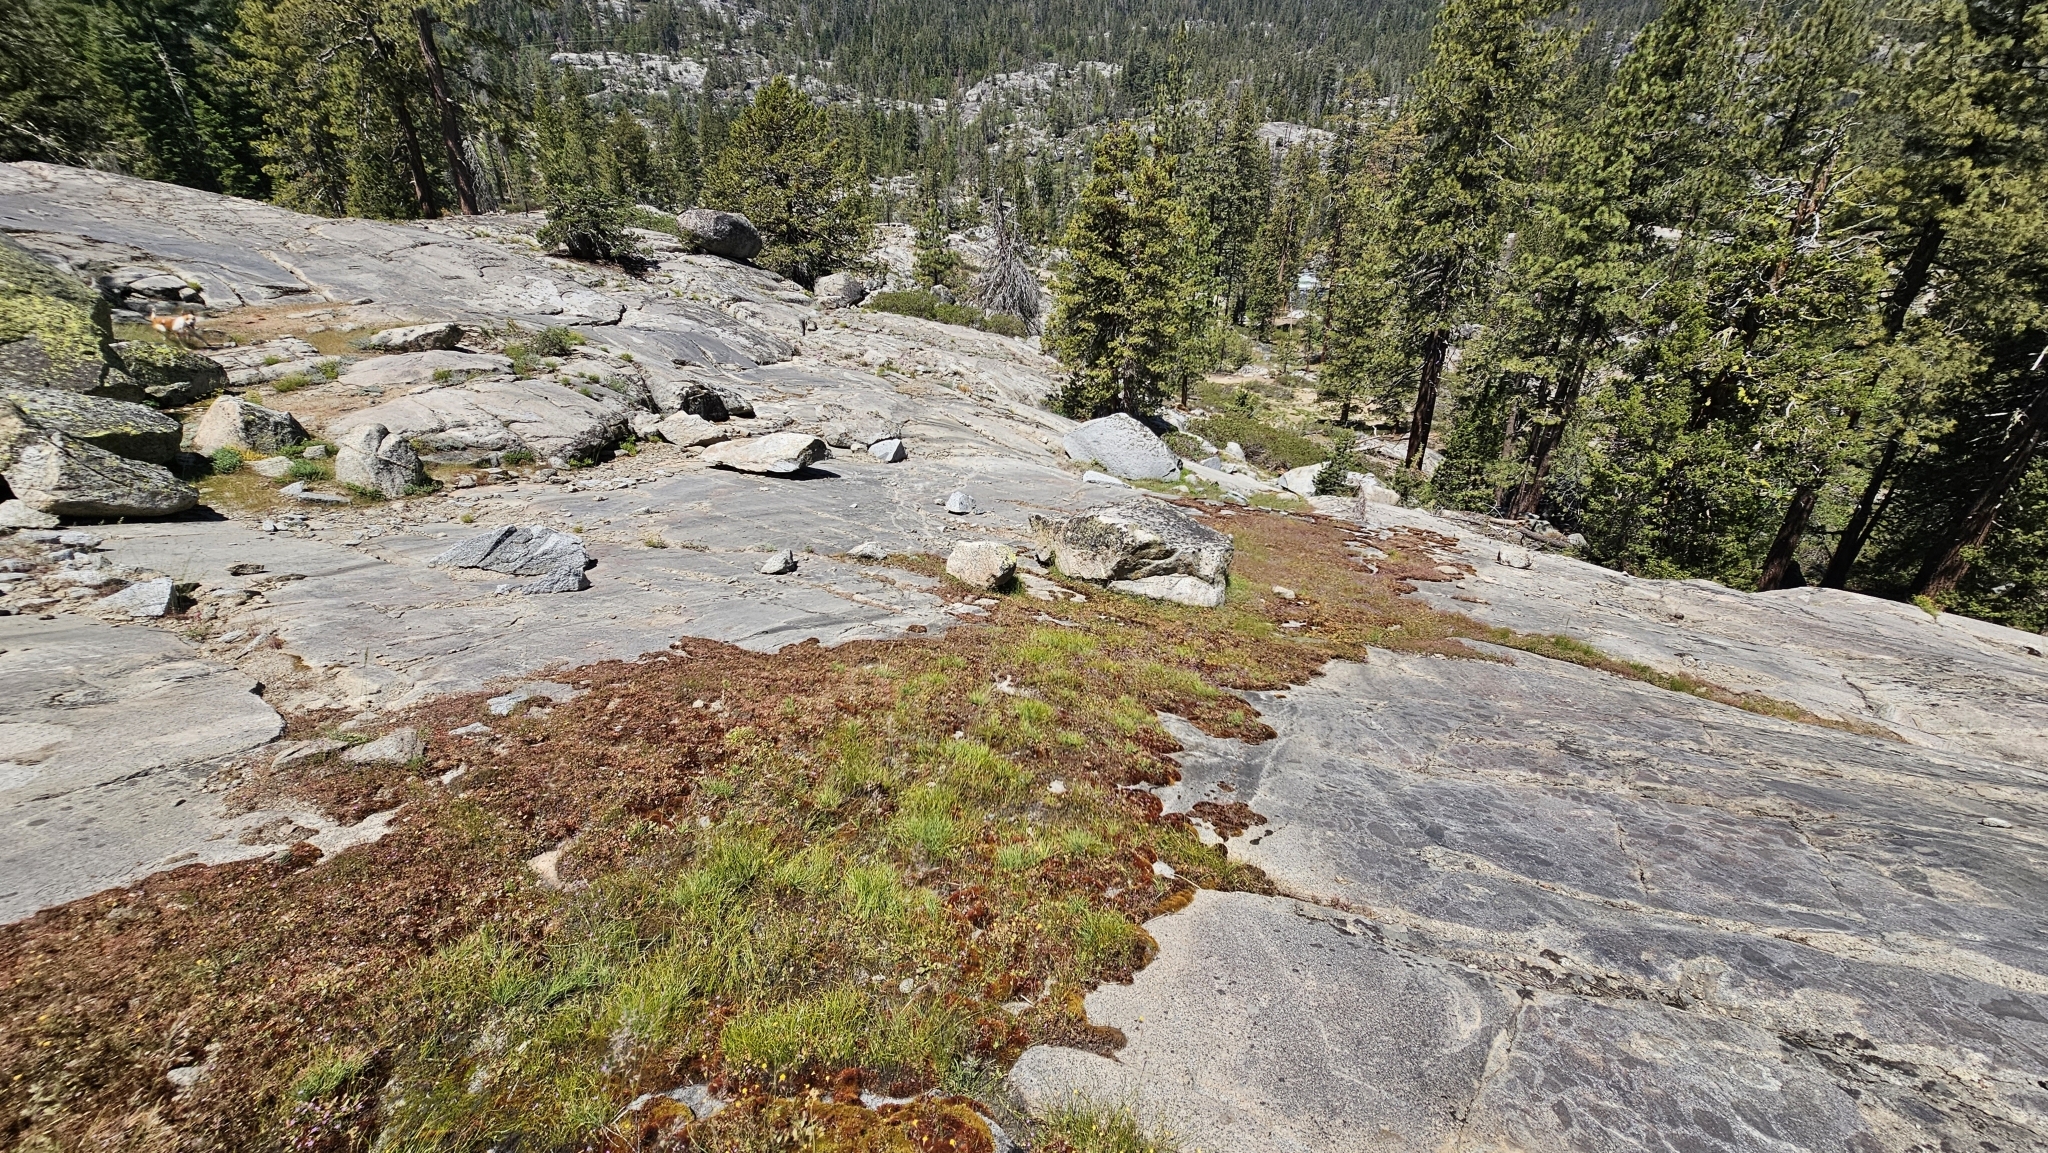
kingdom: Plantae
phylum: Tracheophyta
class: Magnoliopsida
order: Lamiales
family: Phrymaceae
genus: Erythranthe
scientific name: Erythranthe laciniata
